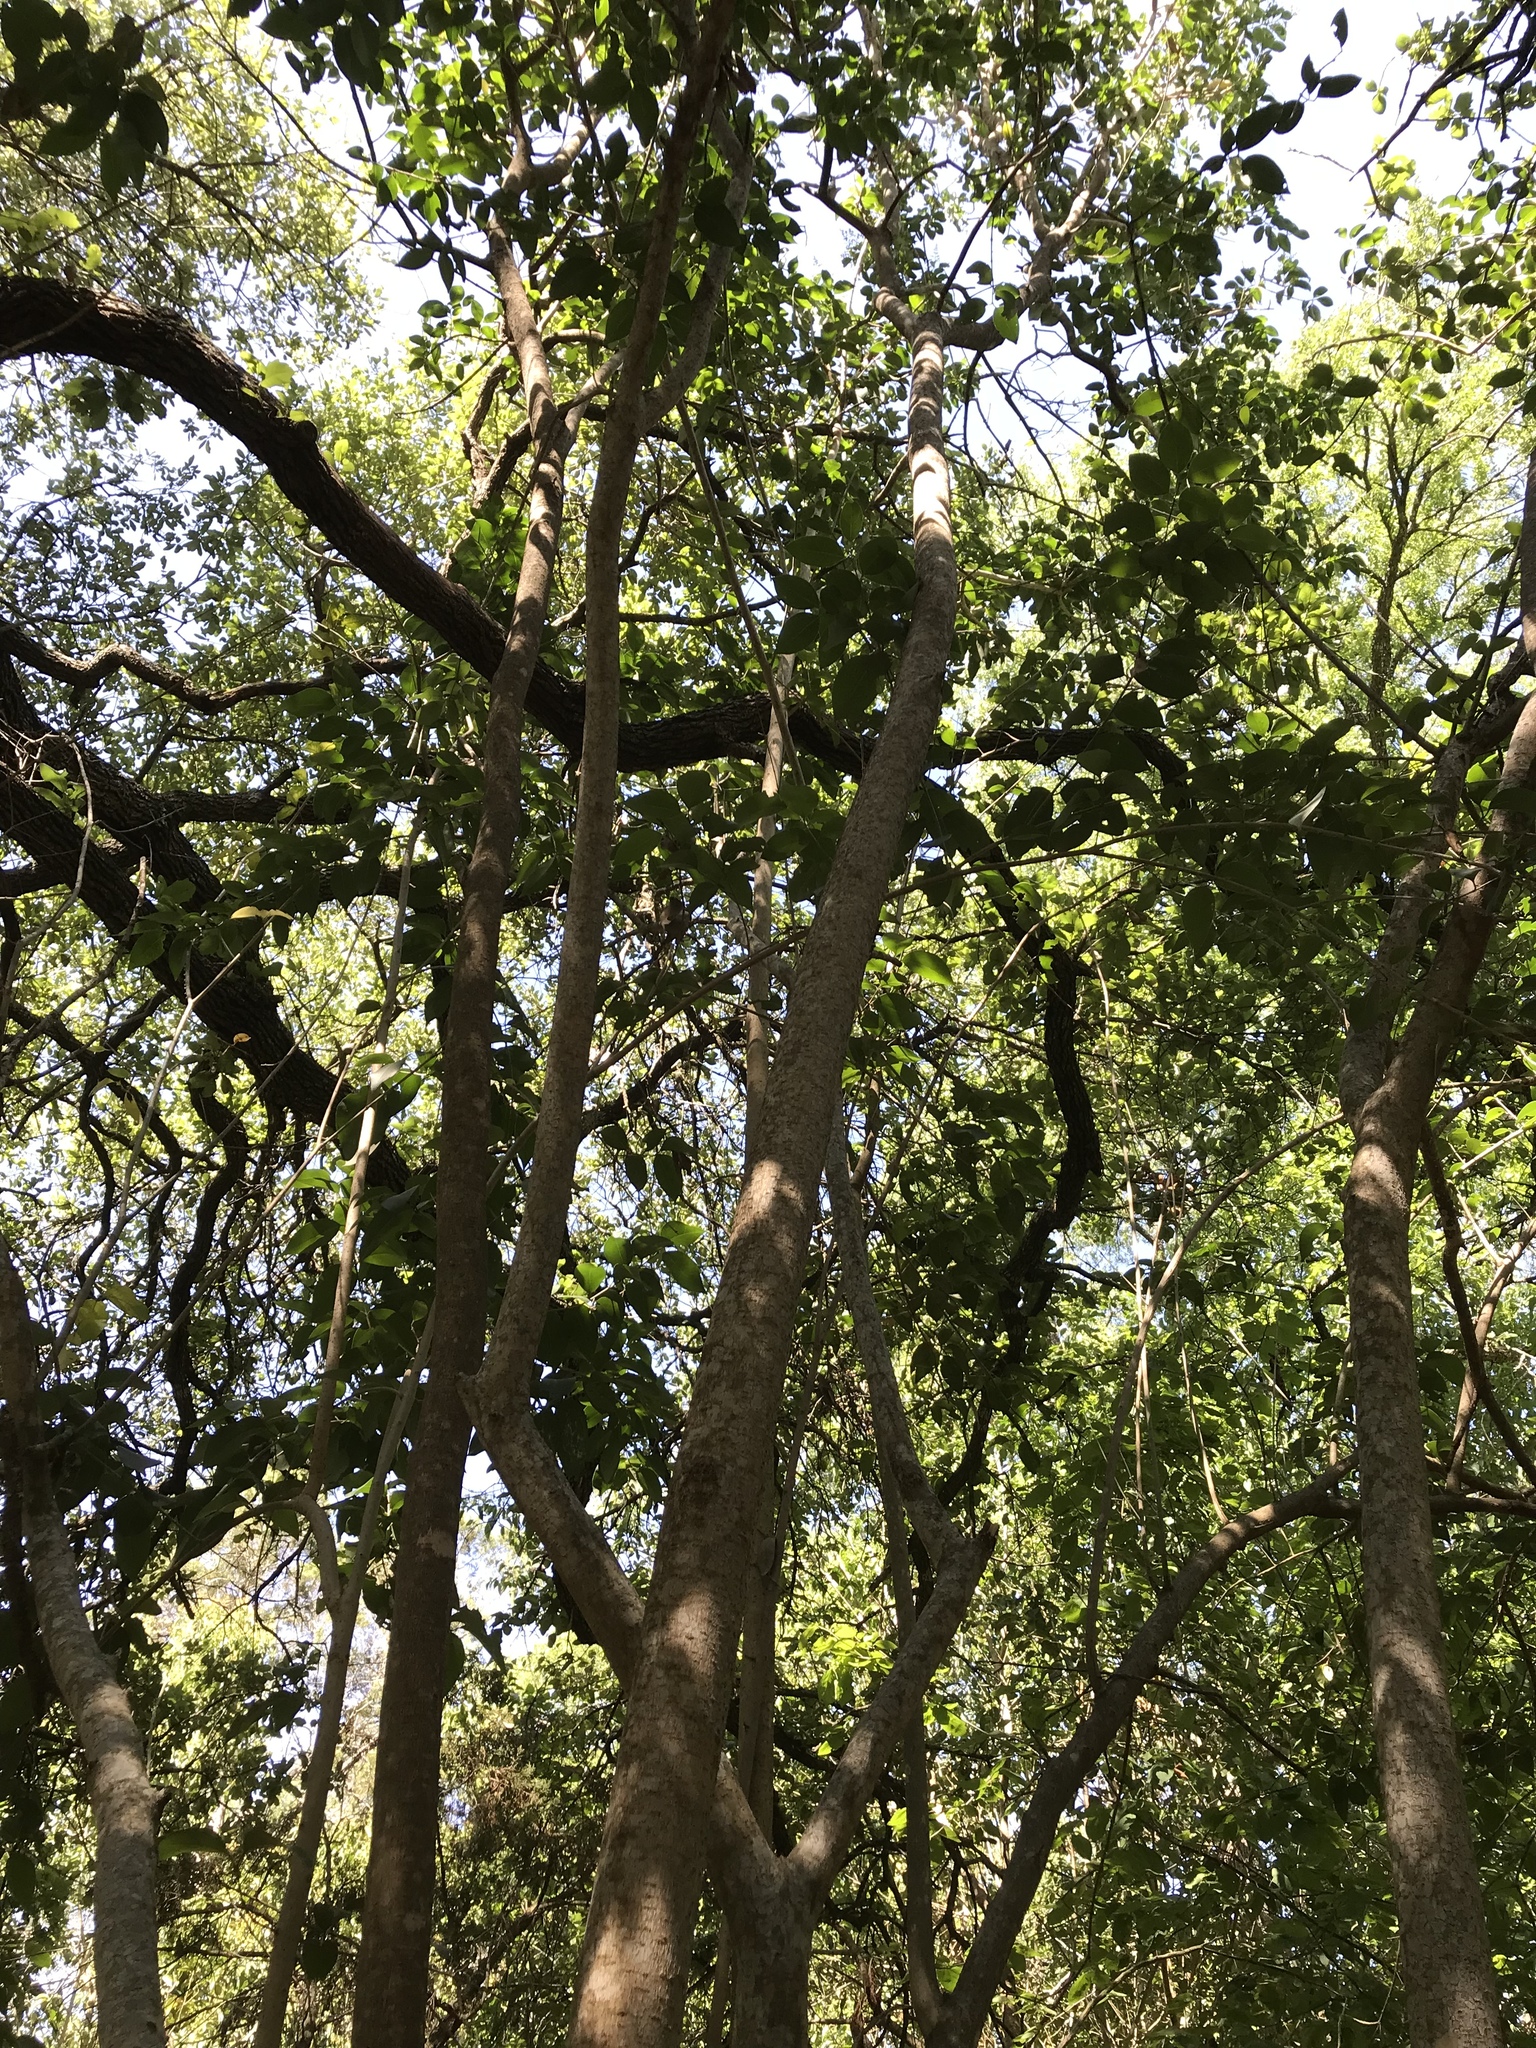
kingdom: Plantae
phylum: Tracheophyta
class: Magnoliopsida
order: Lamiales
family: Oleaceae
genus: Ligustrum
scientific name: Ligustrum lucidum
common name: Glossy privet
